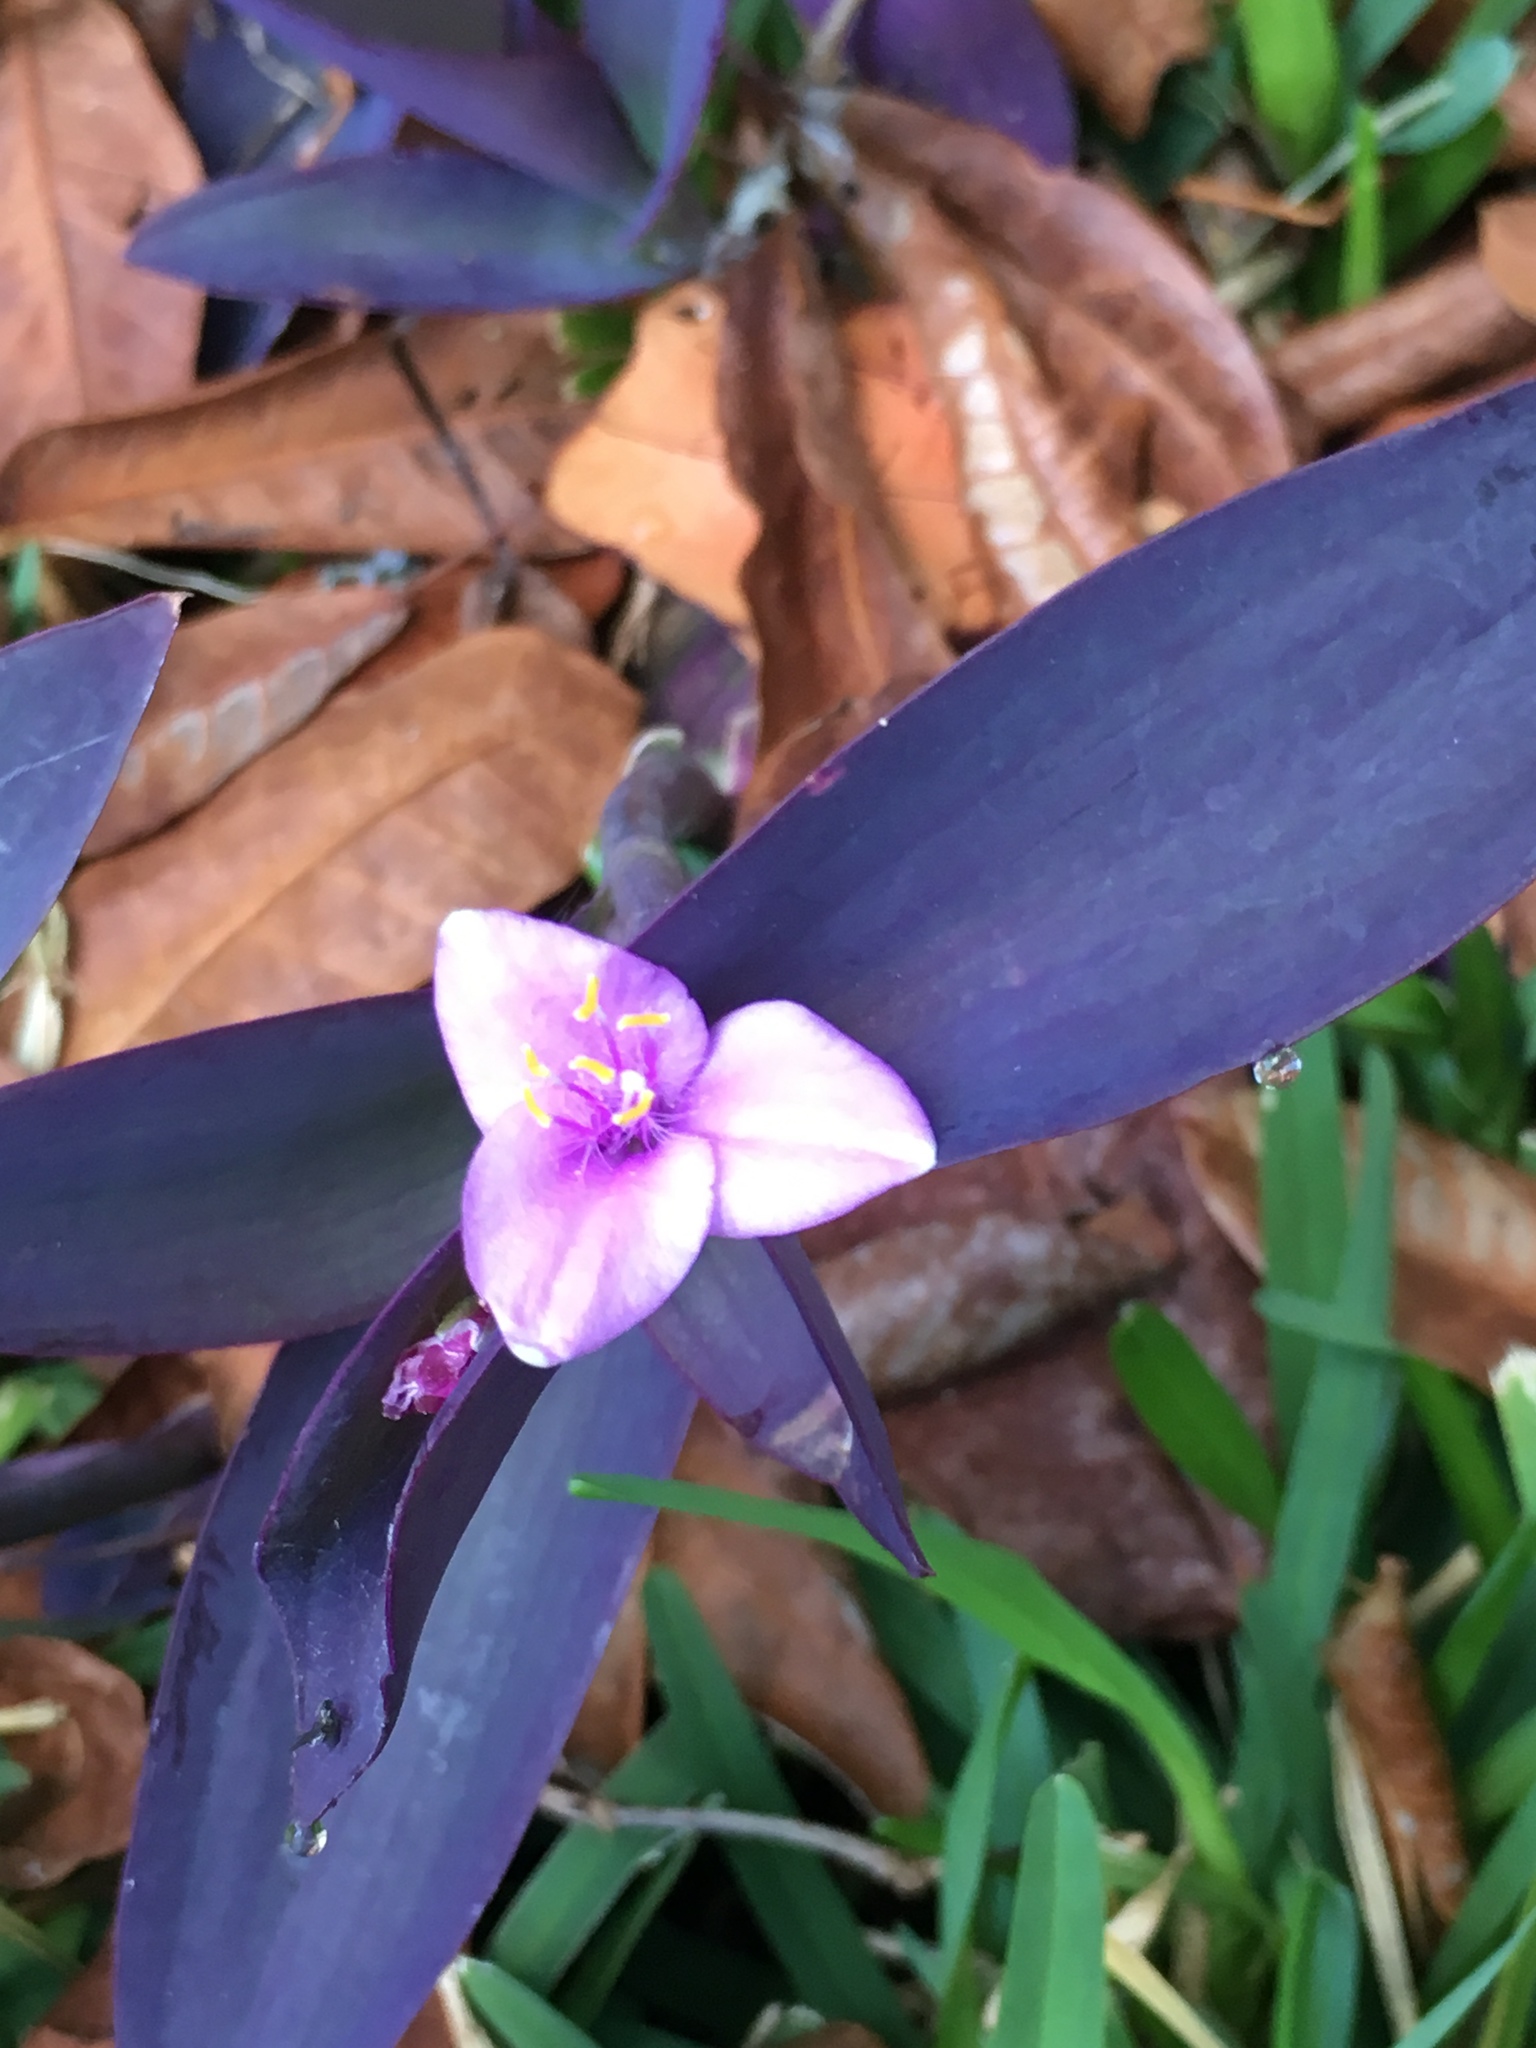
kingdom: Plantae
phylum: Tracheophyta
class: Liliopsida
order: Commelinales
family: Commelinaceae
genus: Tradescantia
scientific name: Tradescantia pallida
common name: Purpleheart
